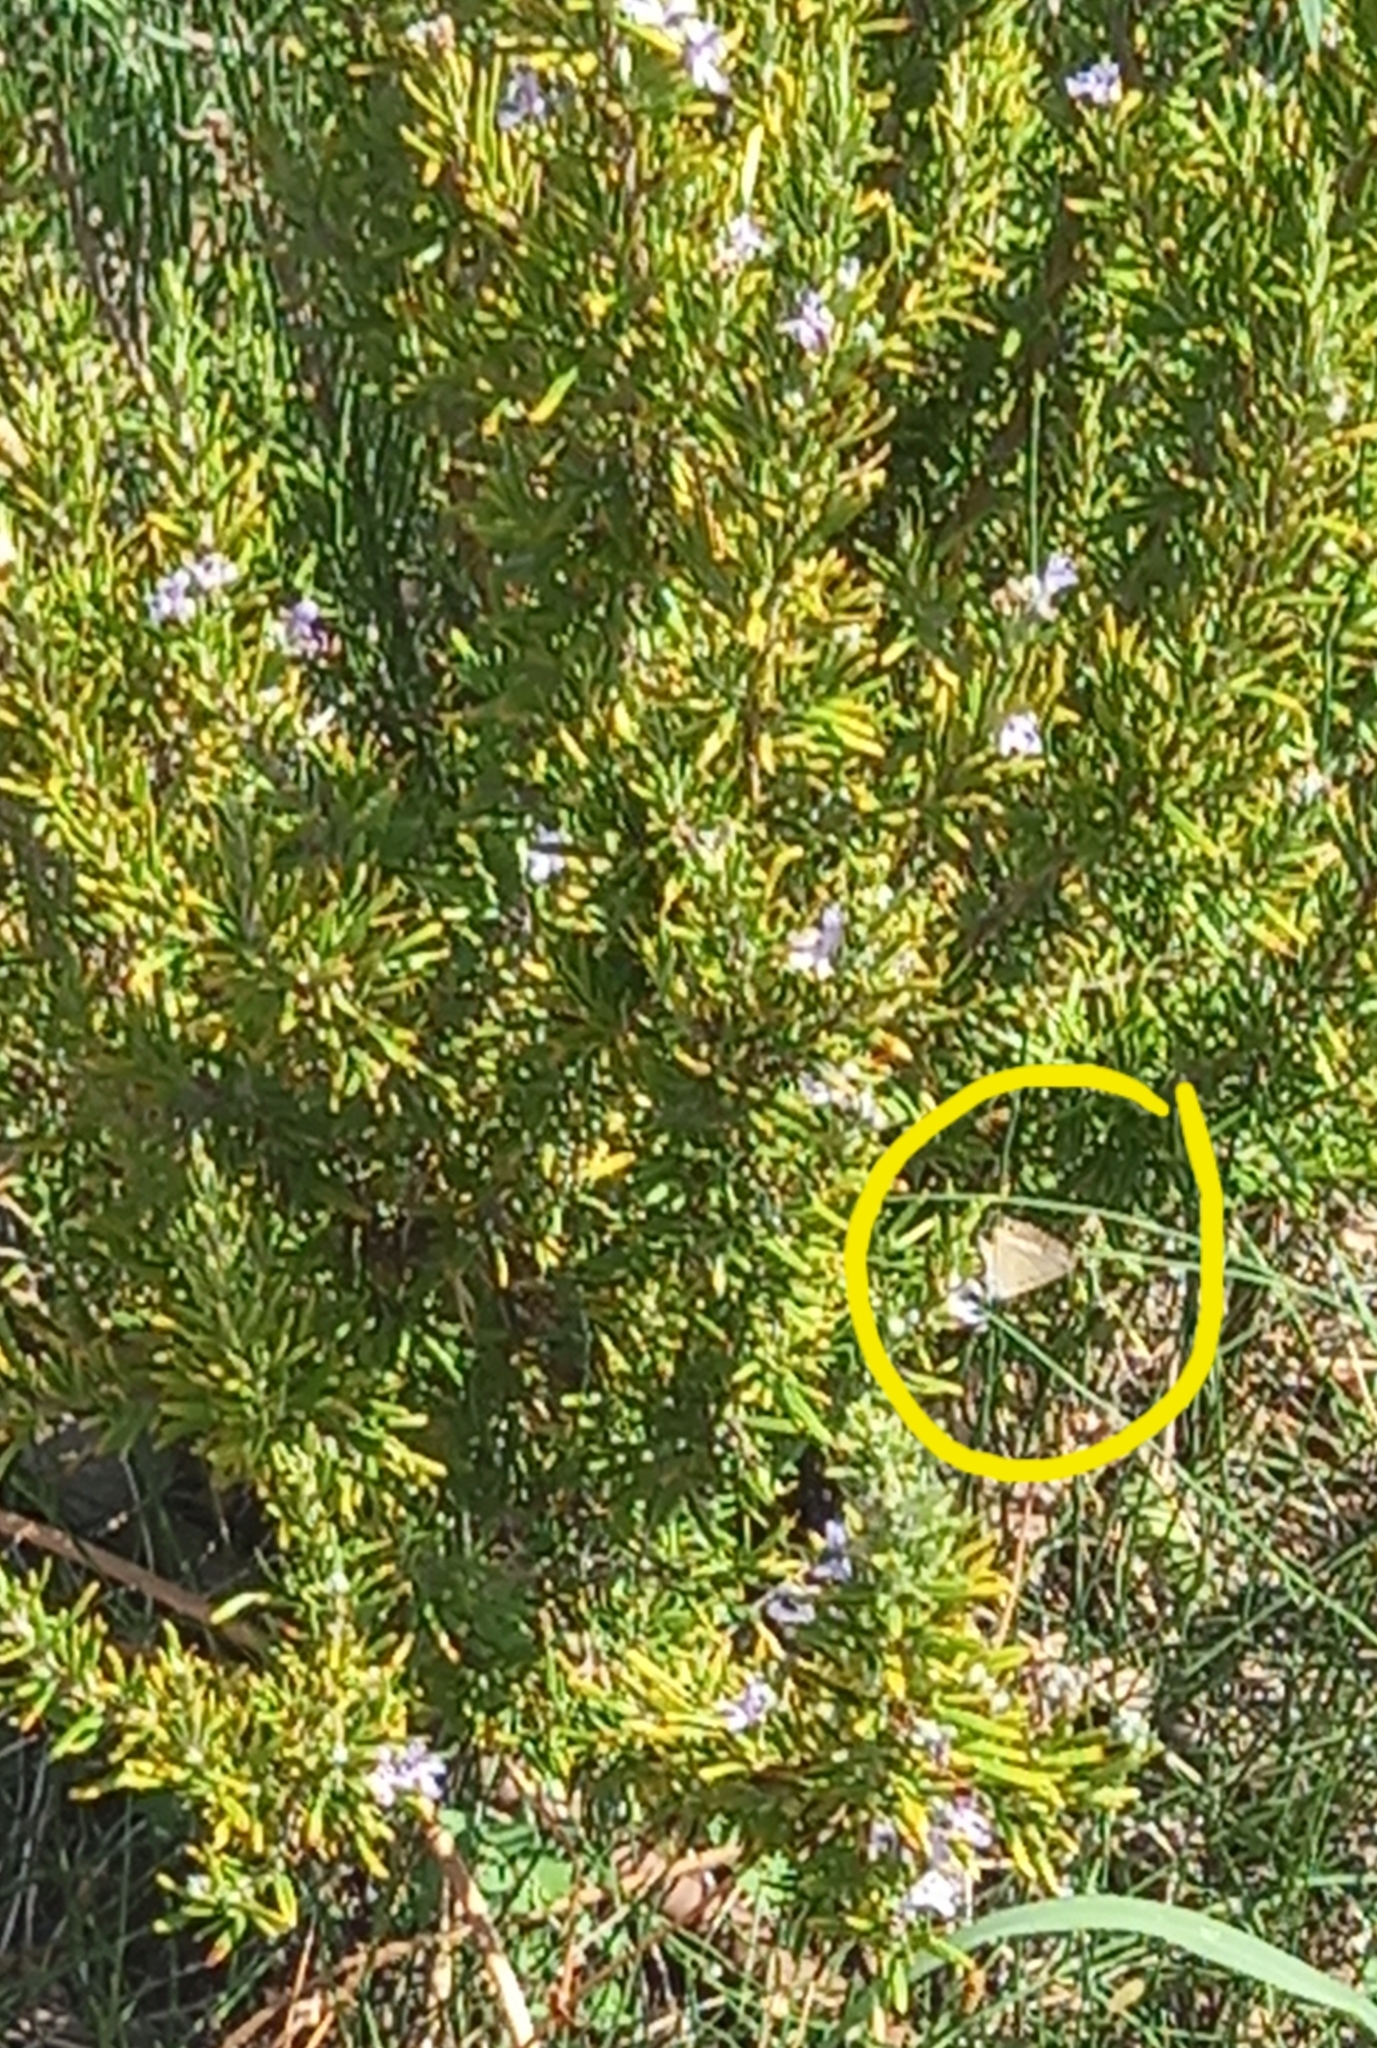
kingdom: Animalia
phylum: Arthropoda
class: Insecta
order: Lepidoptera
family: Lycaenidae
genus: Lampides
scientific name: Lampides boeticus
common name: Long-tailed blue
